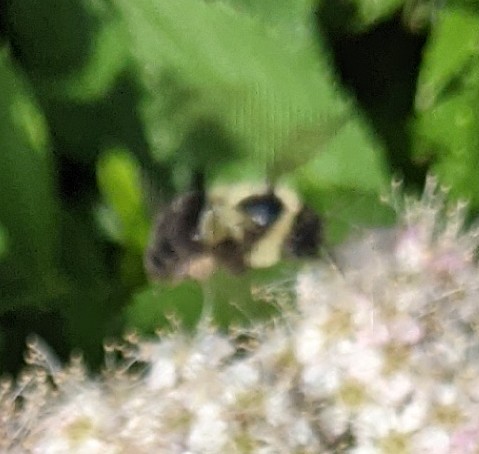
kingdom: Animalia
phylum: Arthropoda
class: Insecta
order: Hymenoptera
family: Apidae
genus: Bombus
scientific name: Bombus impatiens
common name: Common eastern bumble bee
